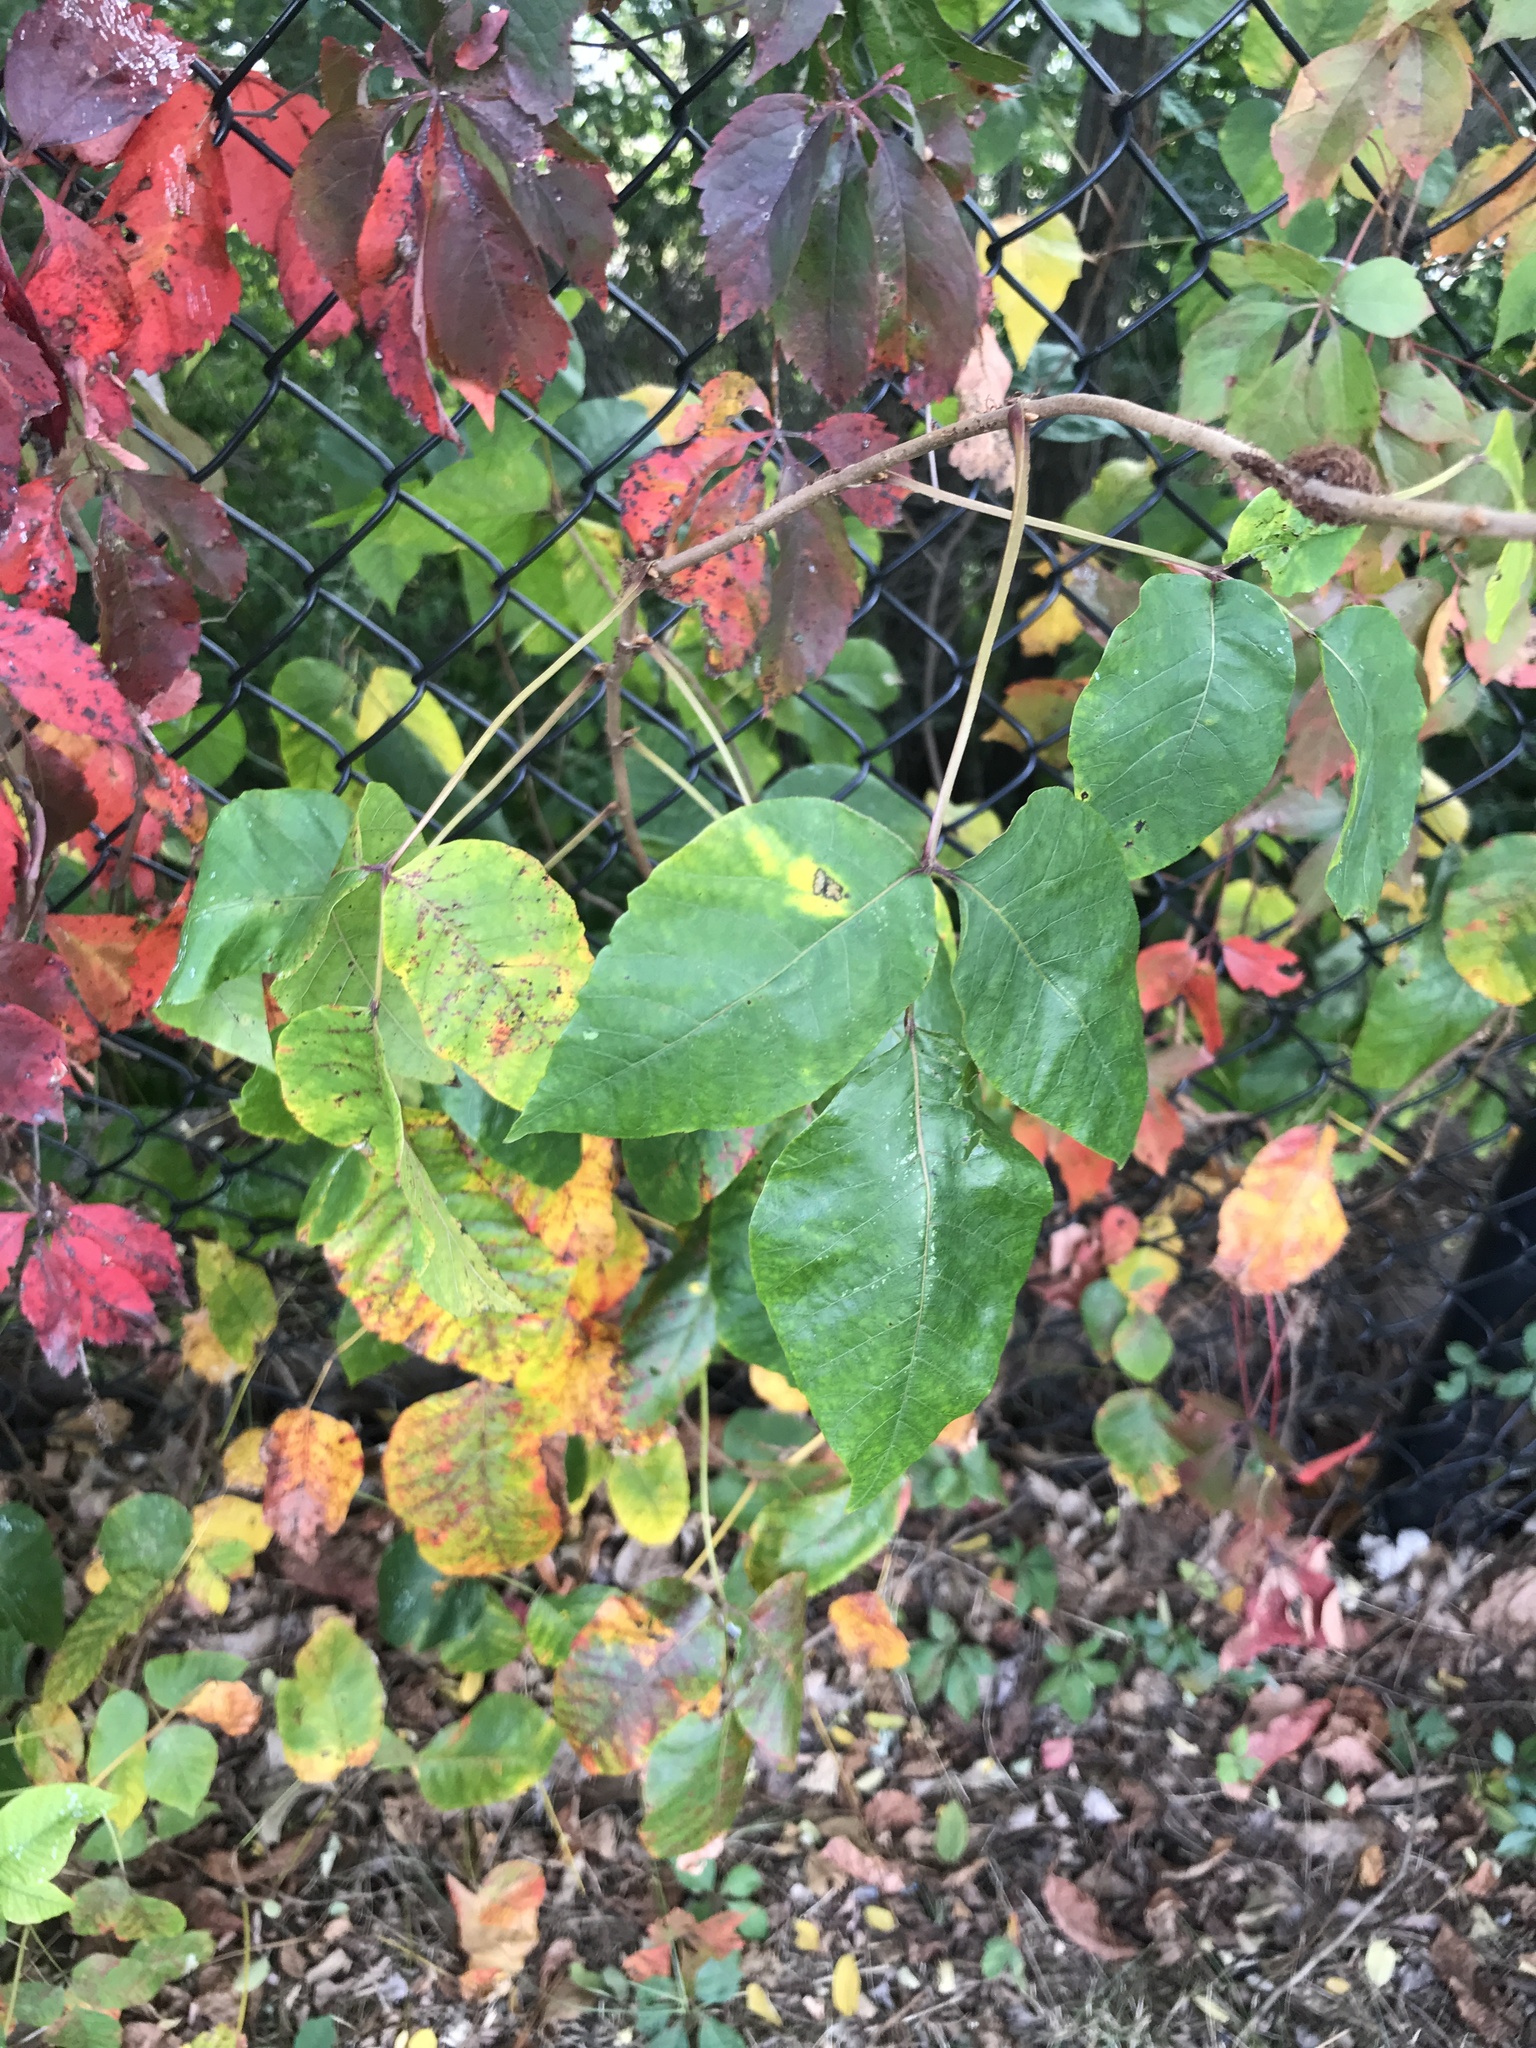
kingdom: Plantae
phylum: Tracheophyta
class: Magnoliopsida
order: Sapindales
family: Anacardiaceae
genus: Toxicodendron
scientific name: Toxicodendron radicans
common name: Poison ivy
